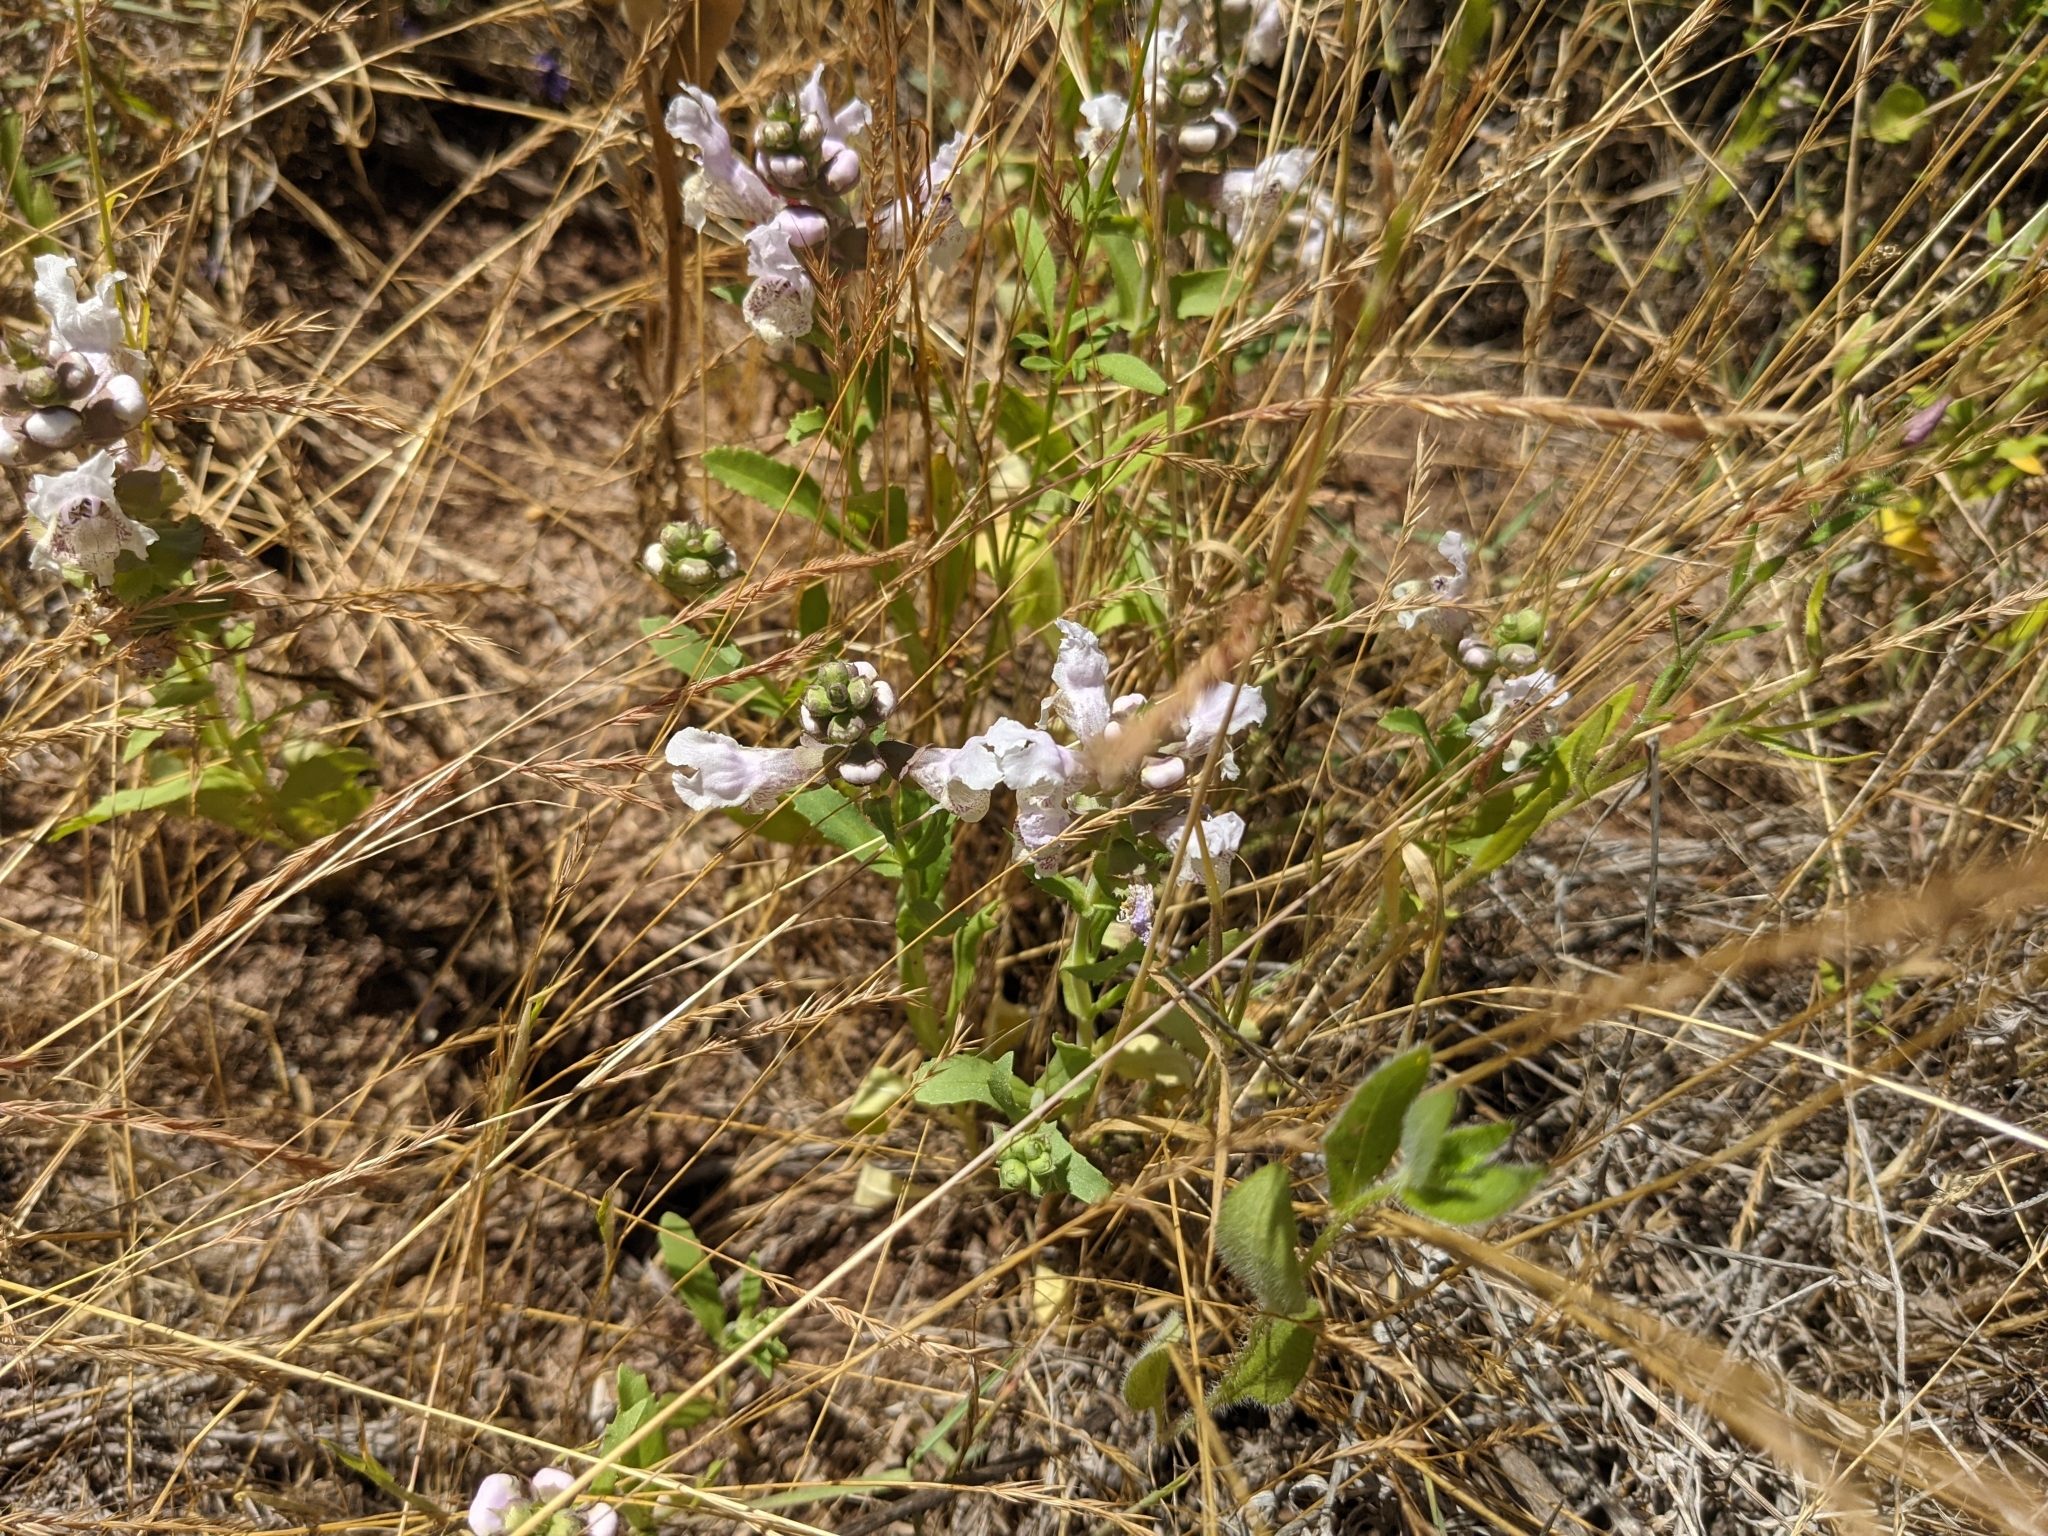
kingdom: Plantae
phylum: Tracheophyta
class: Magnoliopsida
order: Lamiales
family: Lamiaceae
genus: Brazoria
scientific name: Brazoria truncata
